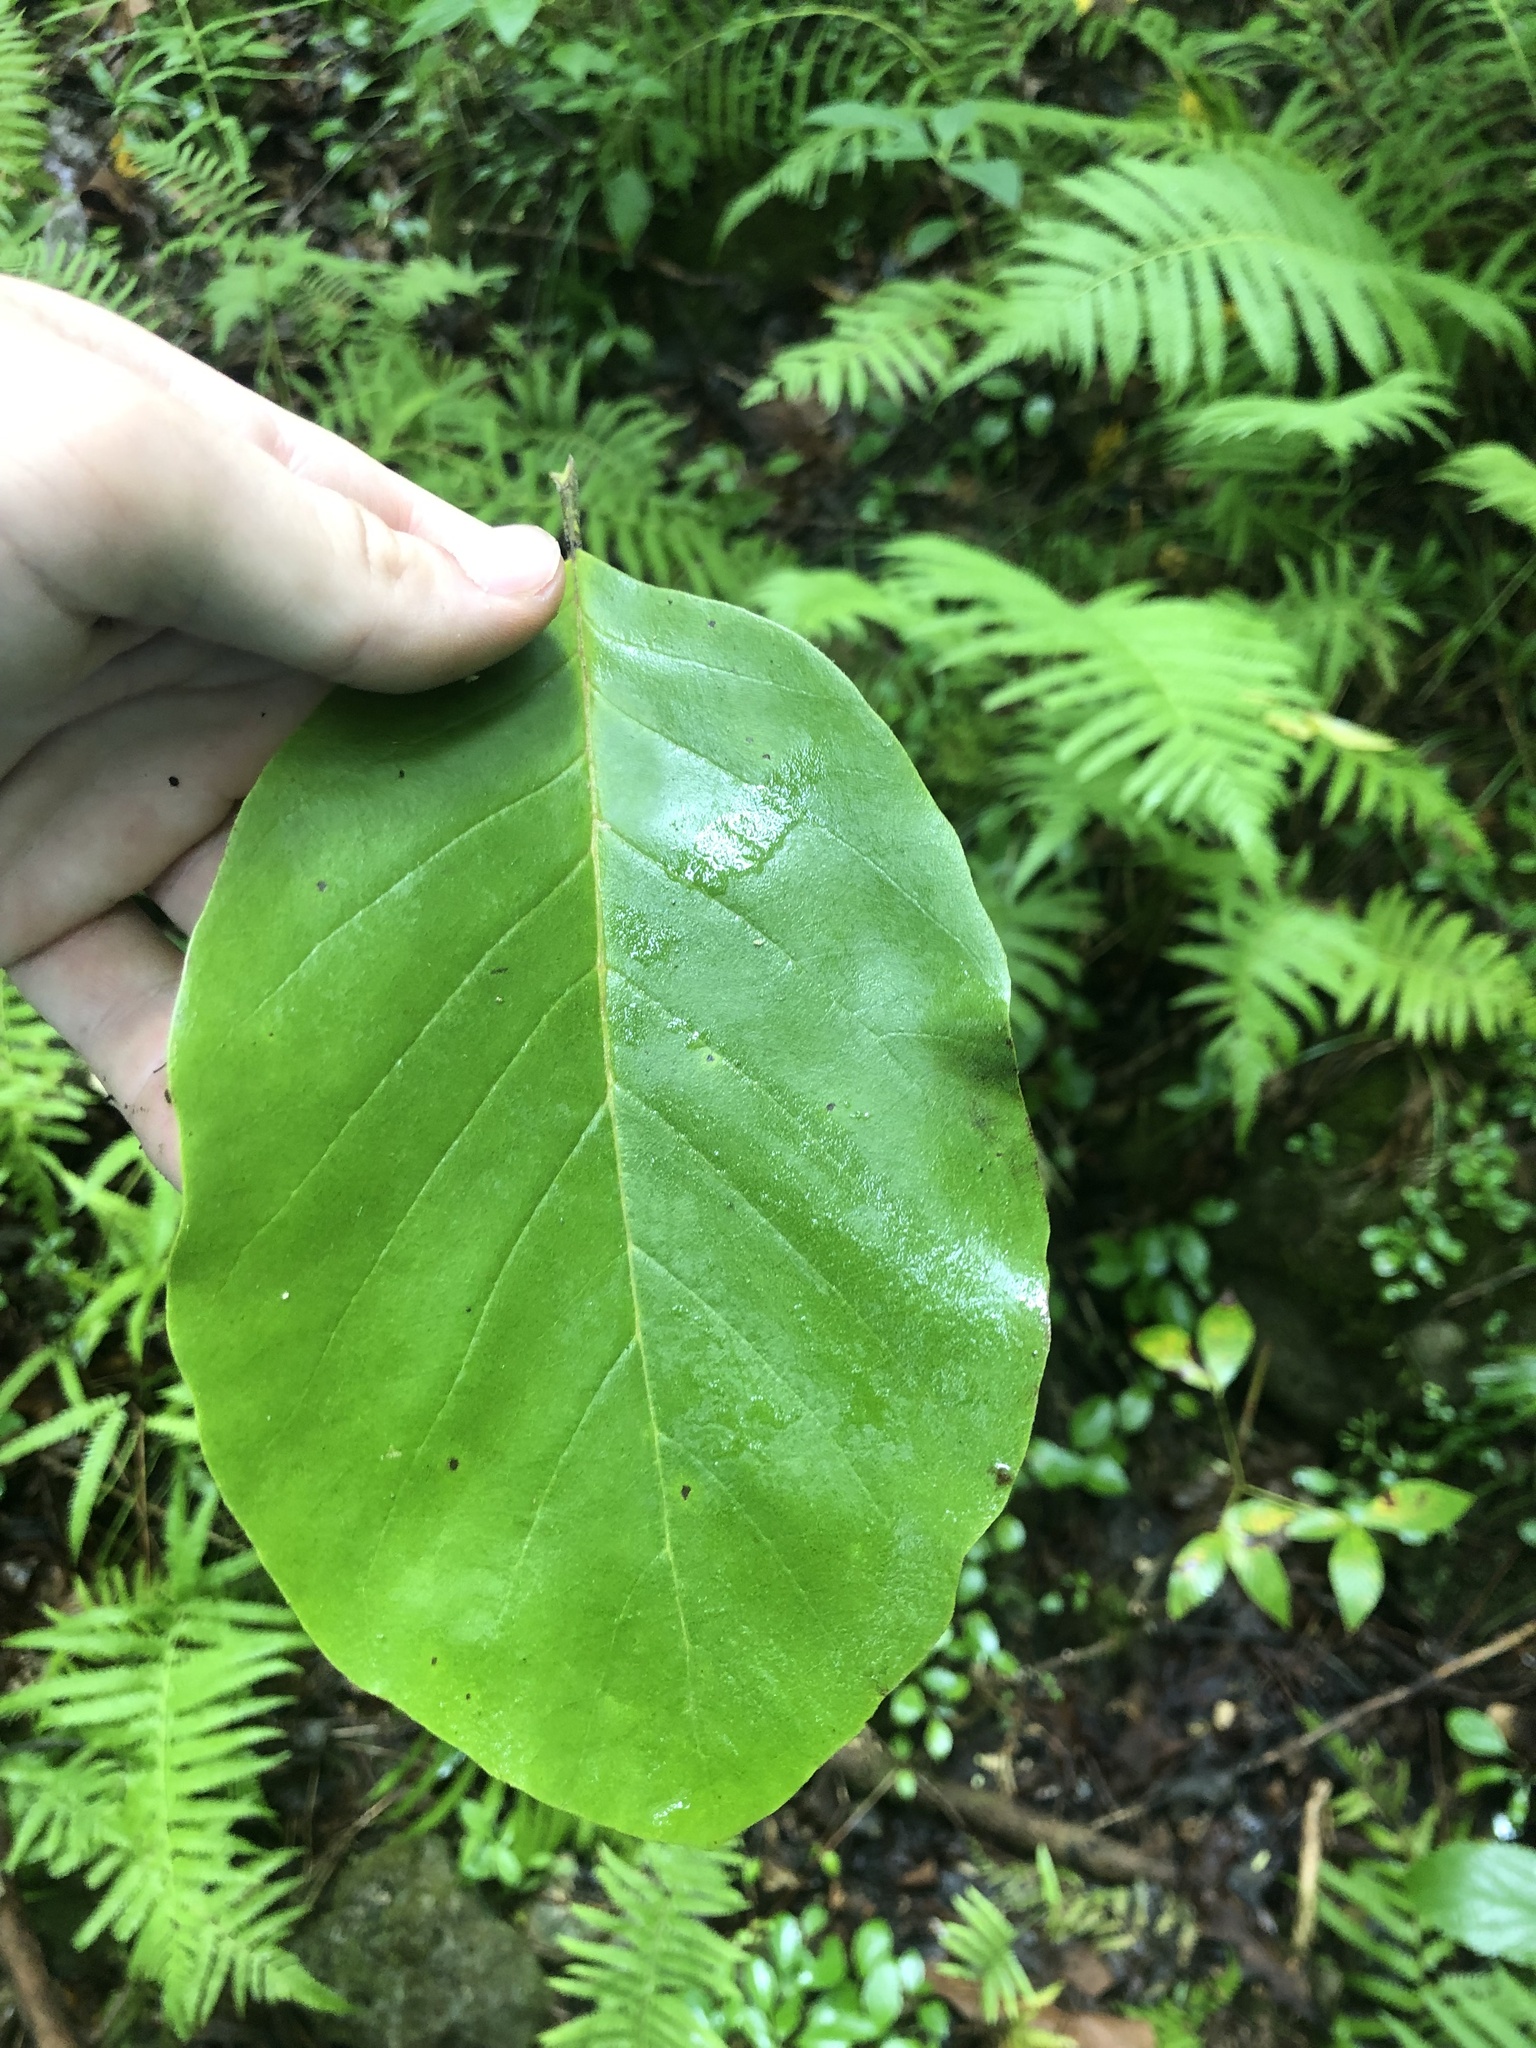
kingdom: Plantae
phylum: Tracheophyta
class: Magnoliopsida
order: Magnoliales
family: Magnoliaceae
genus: Magnolia
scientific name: Magnolia acuminata
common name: Cucumber magnolia
